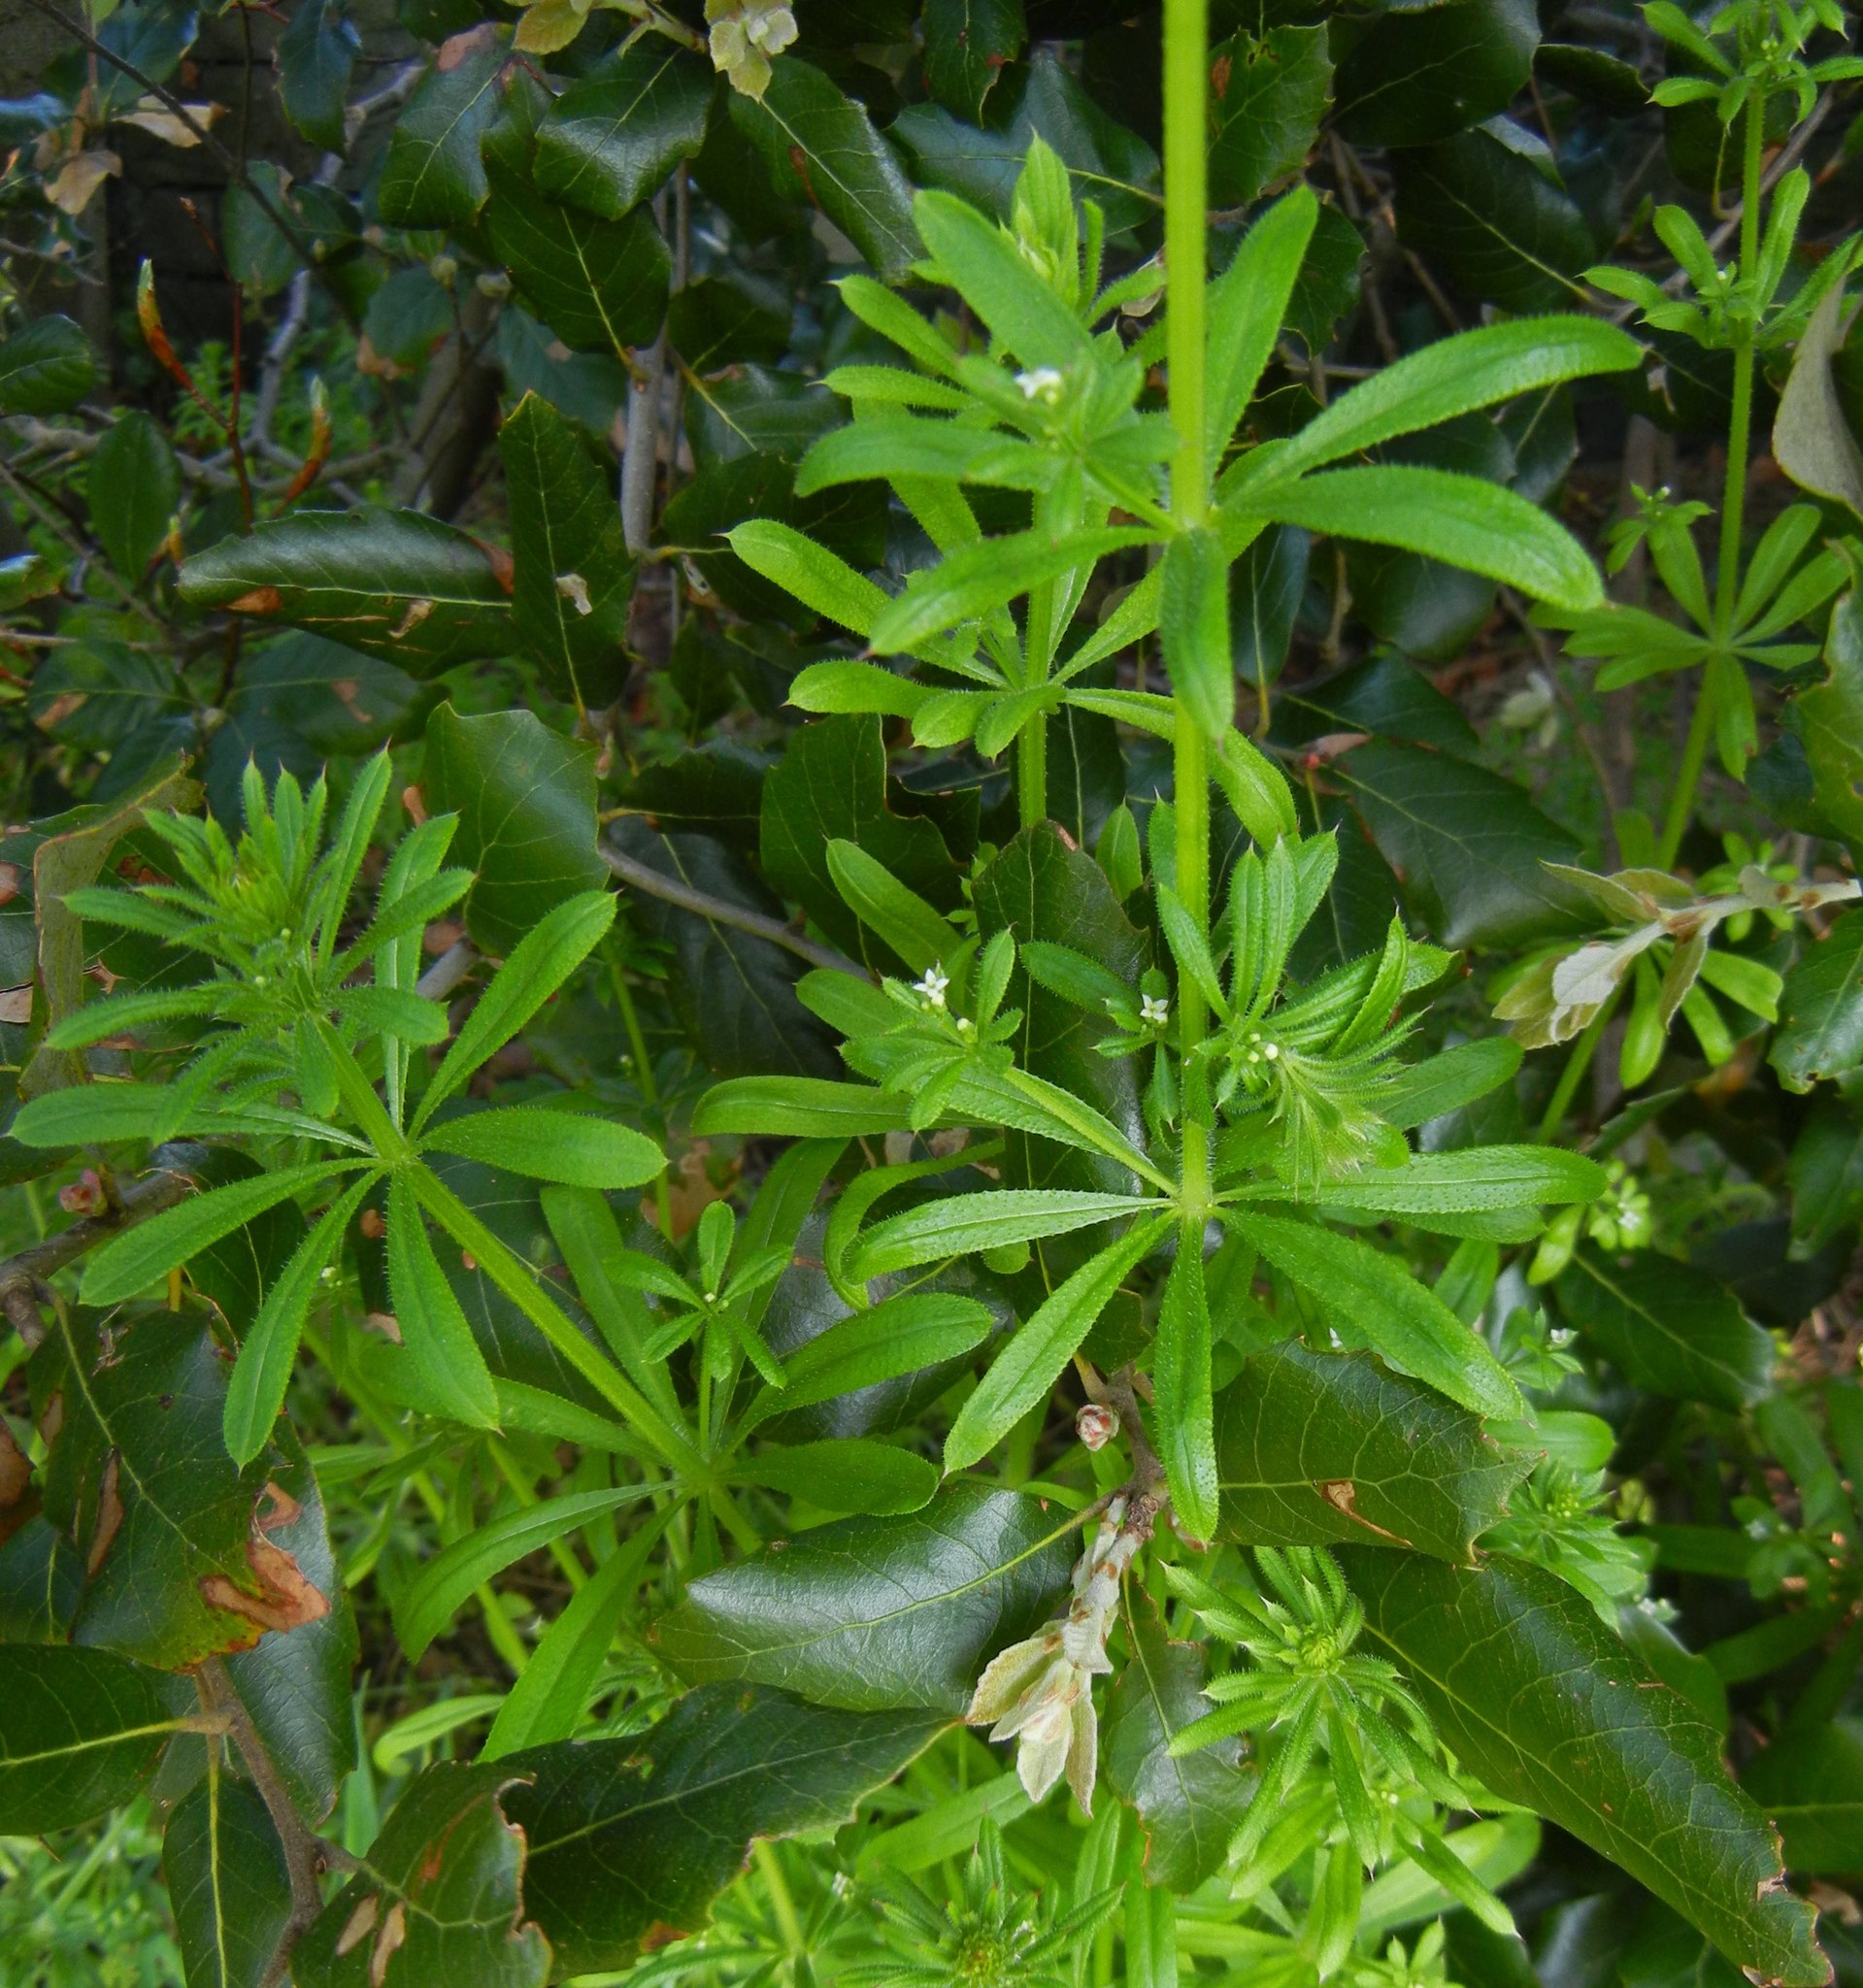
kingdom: Plantae
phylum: Tracheophyta
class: Magnoliopsida
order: Gentianales
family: Rubiaceae
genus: Galium
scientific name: Galium aparine
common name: Cleavers
